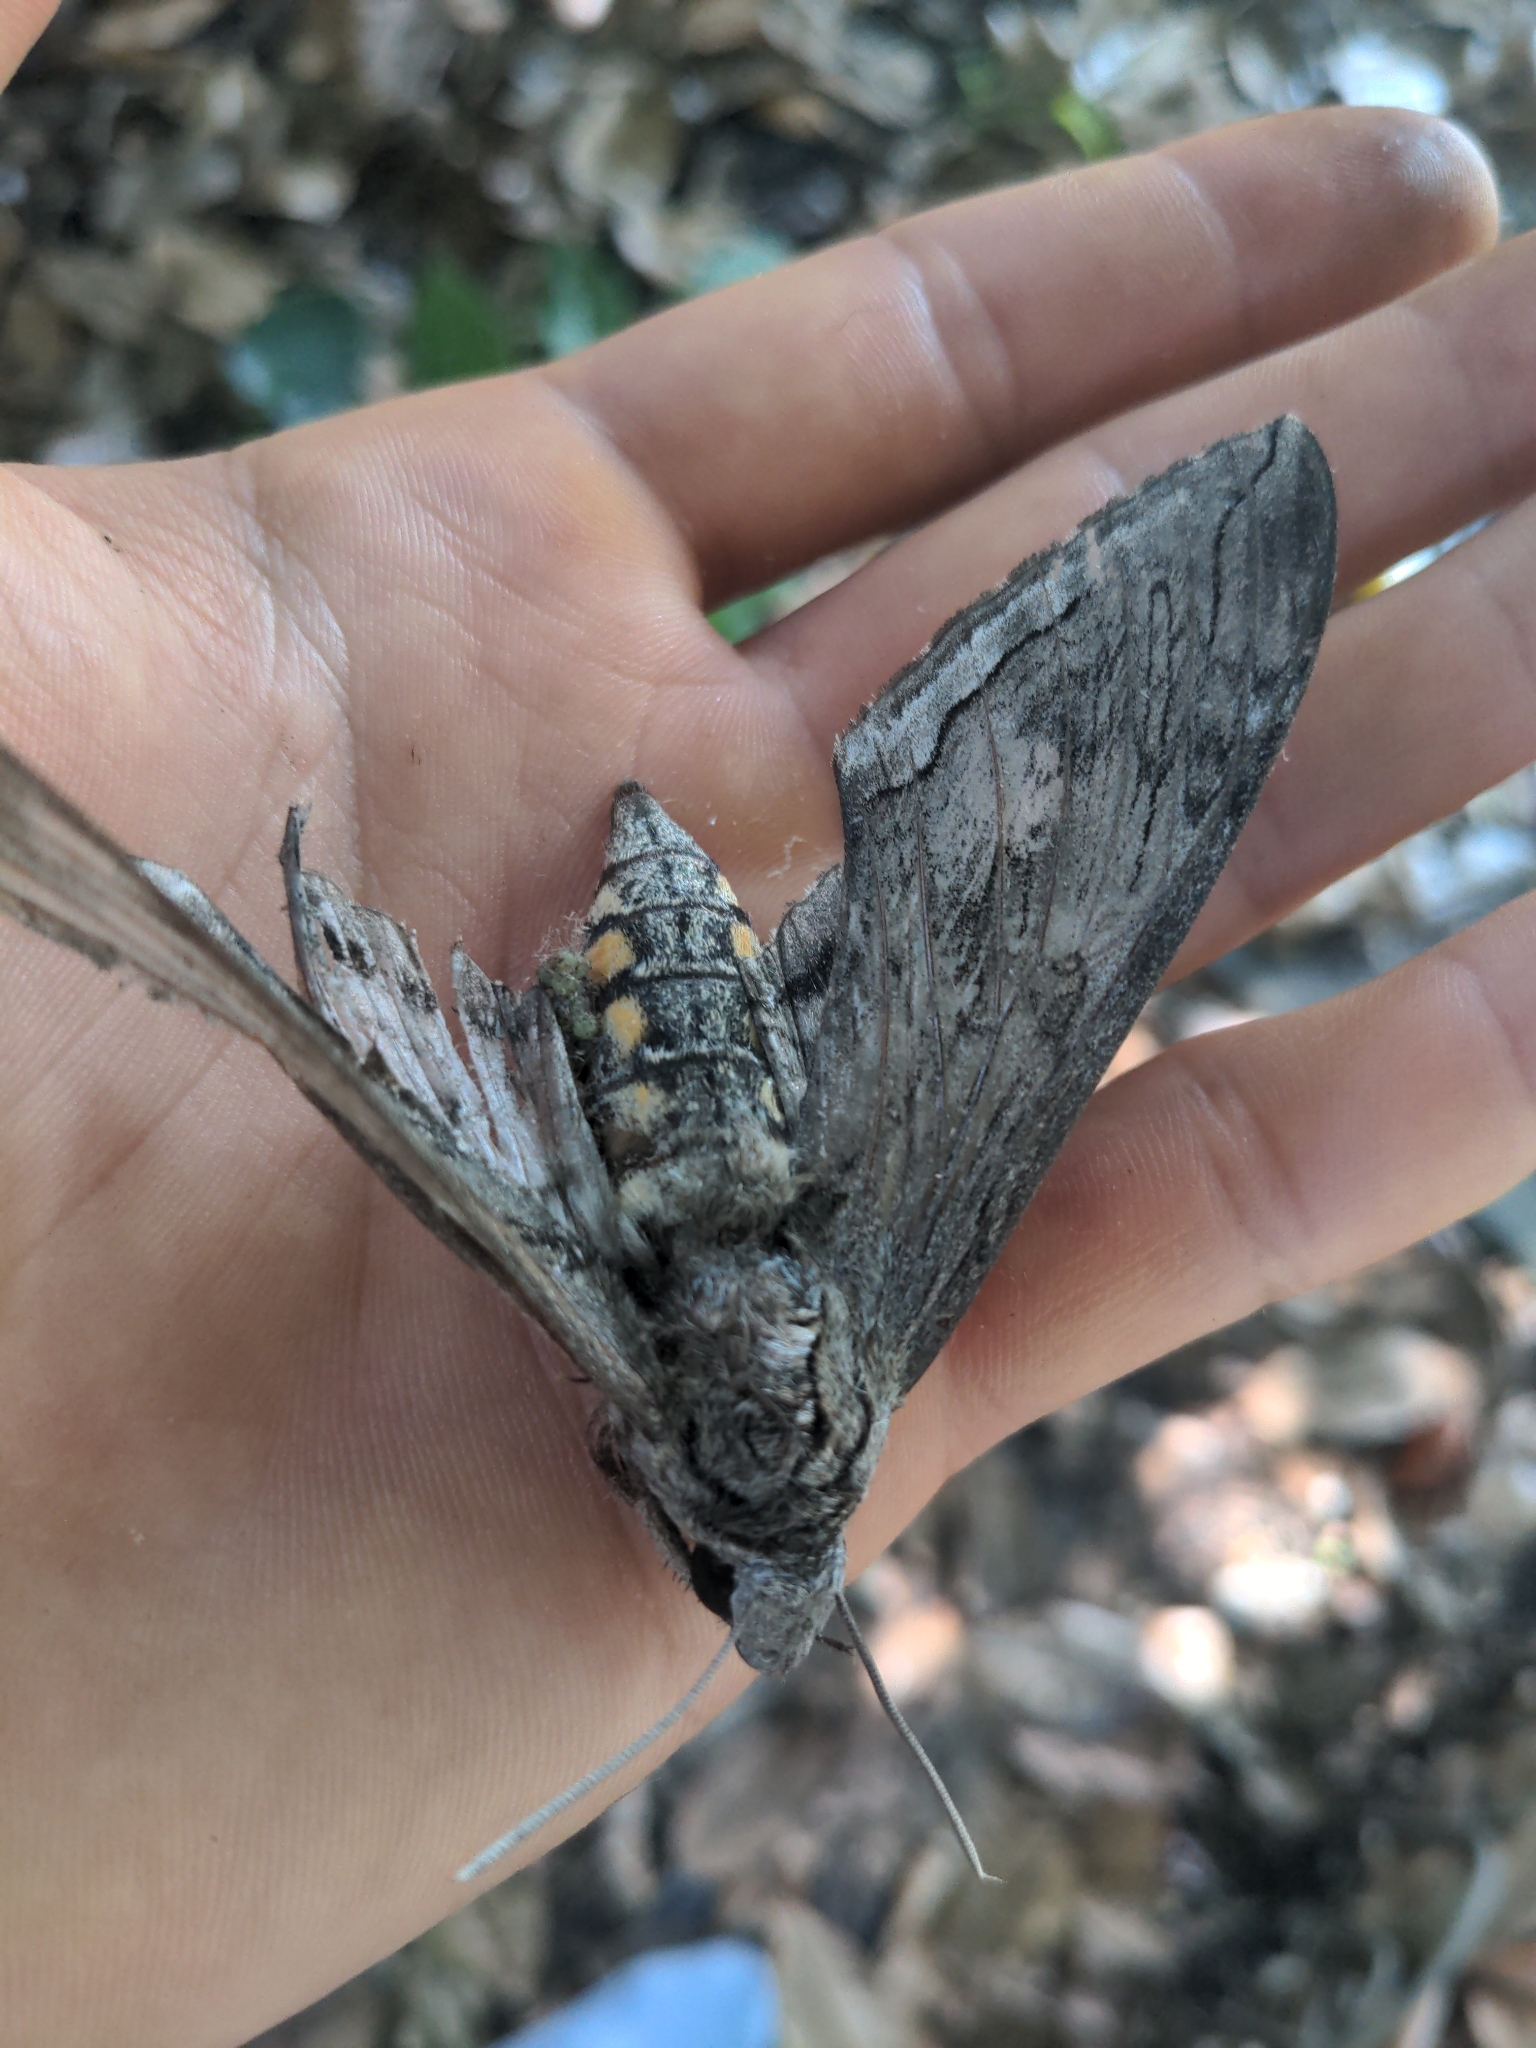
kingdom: Animalia
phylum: Arthropoda
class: Insecta
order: Lepidoptera
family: Sphingidae
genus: Manduca
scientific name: Manduca quinquemaculatus
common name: Five-spotted hawk-moth
